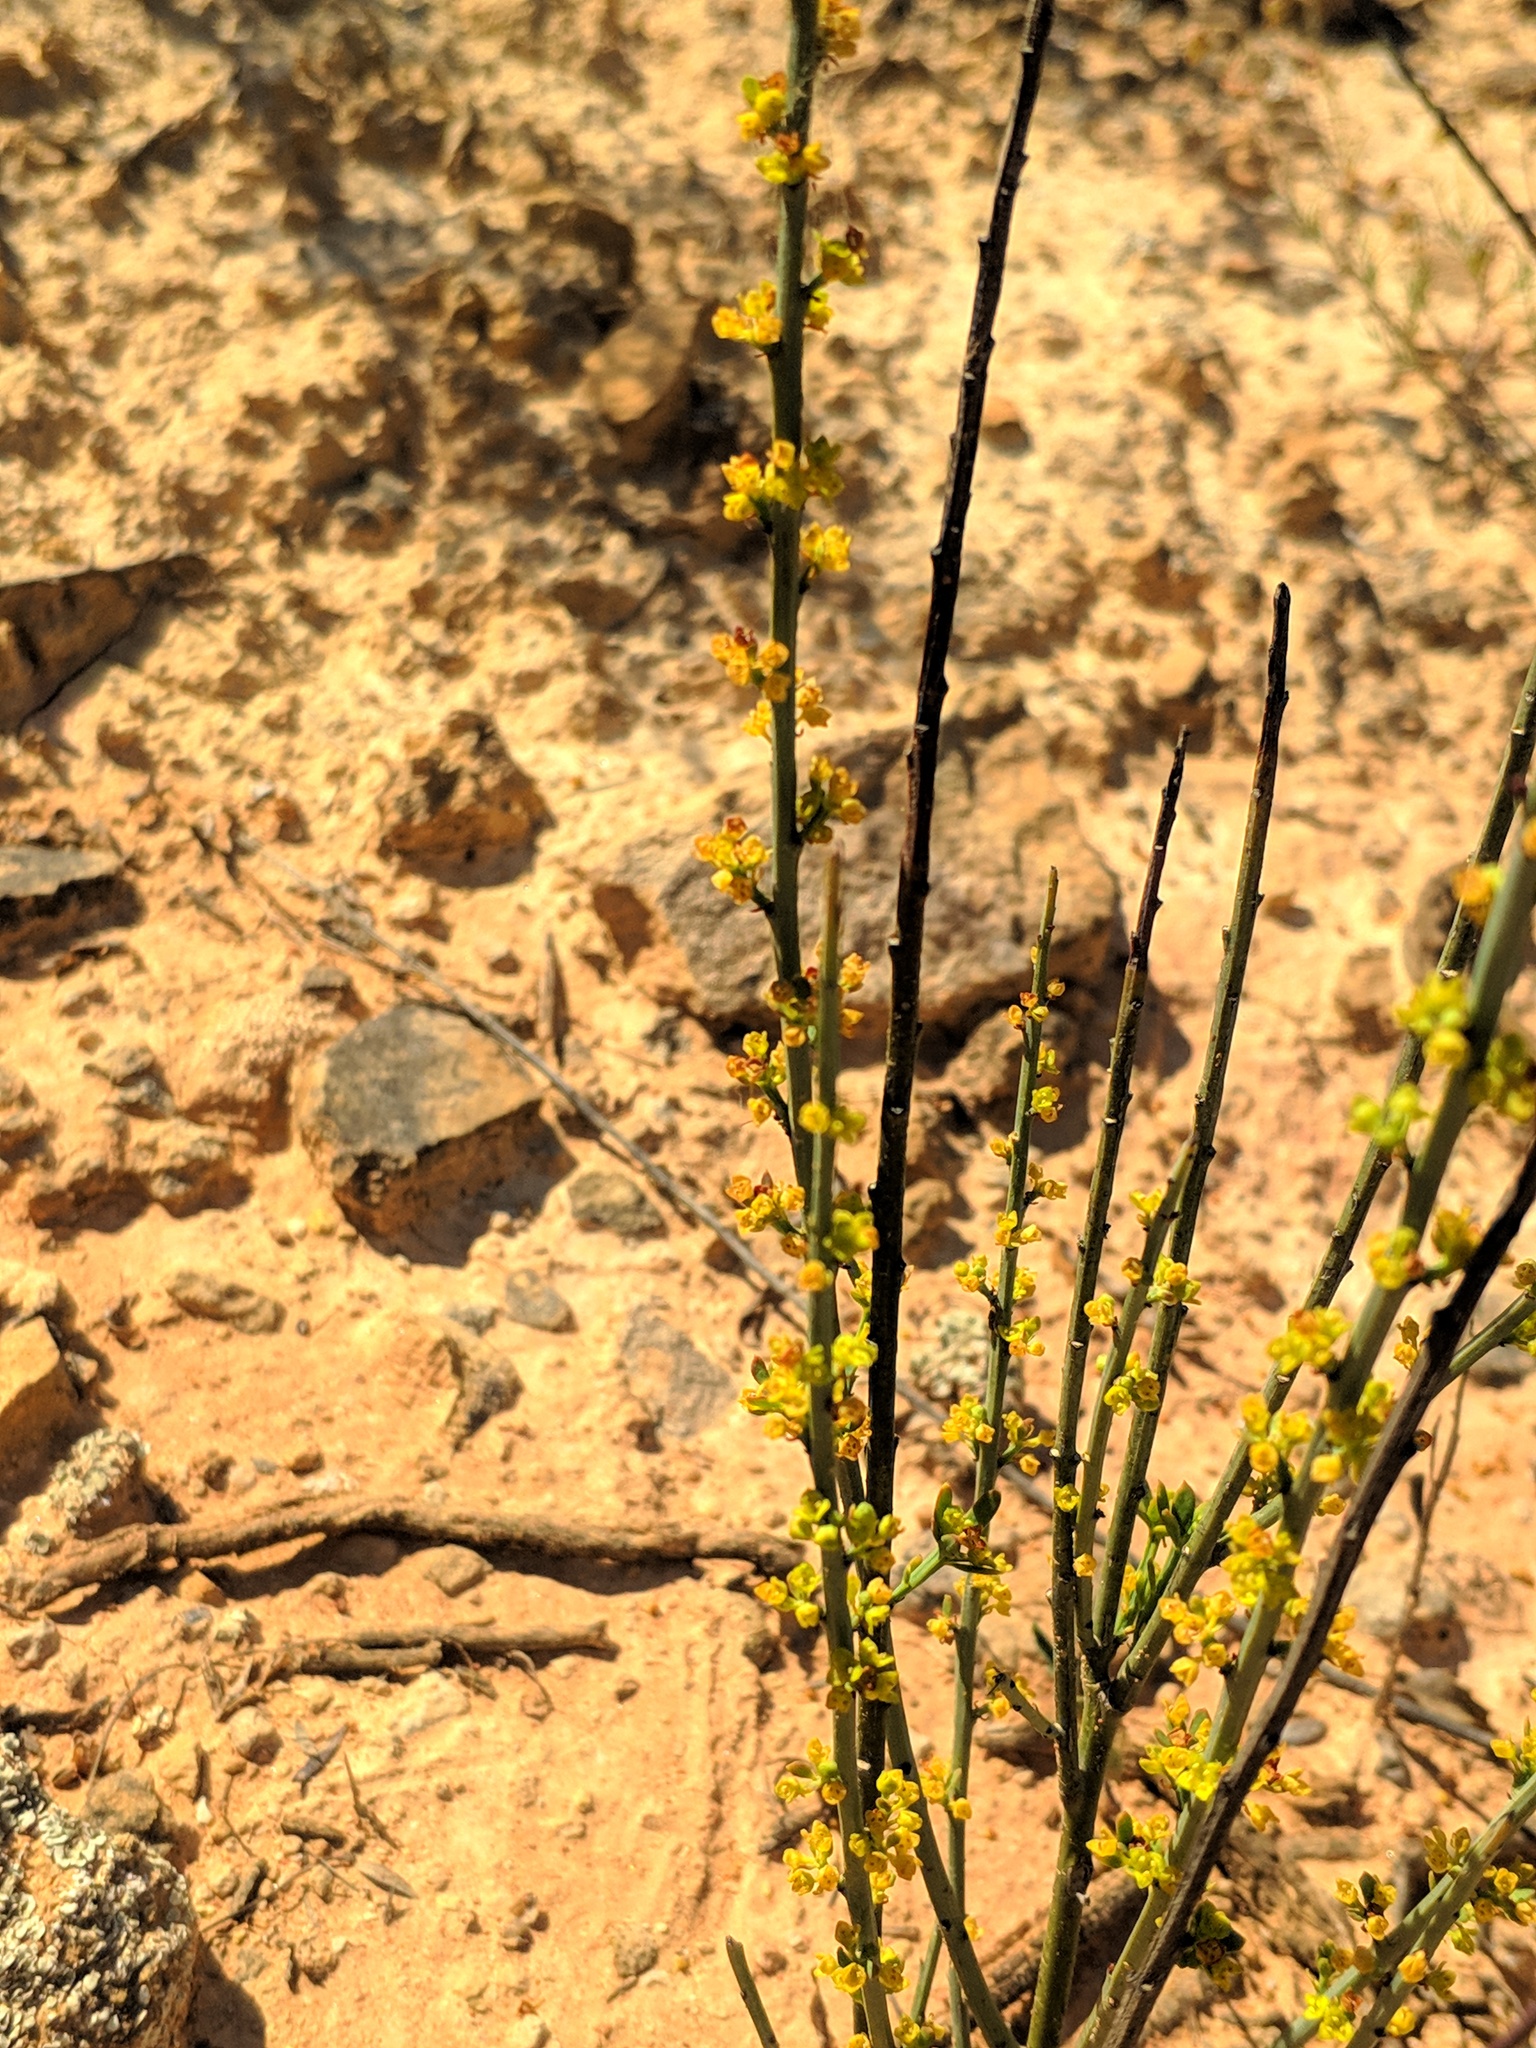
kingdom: Plantae
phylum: Tracheophyta
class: Magnoliopsida
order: Santalales
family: Santalaceae
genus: Osyris
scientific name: Osyris alba
